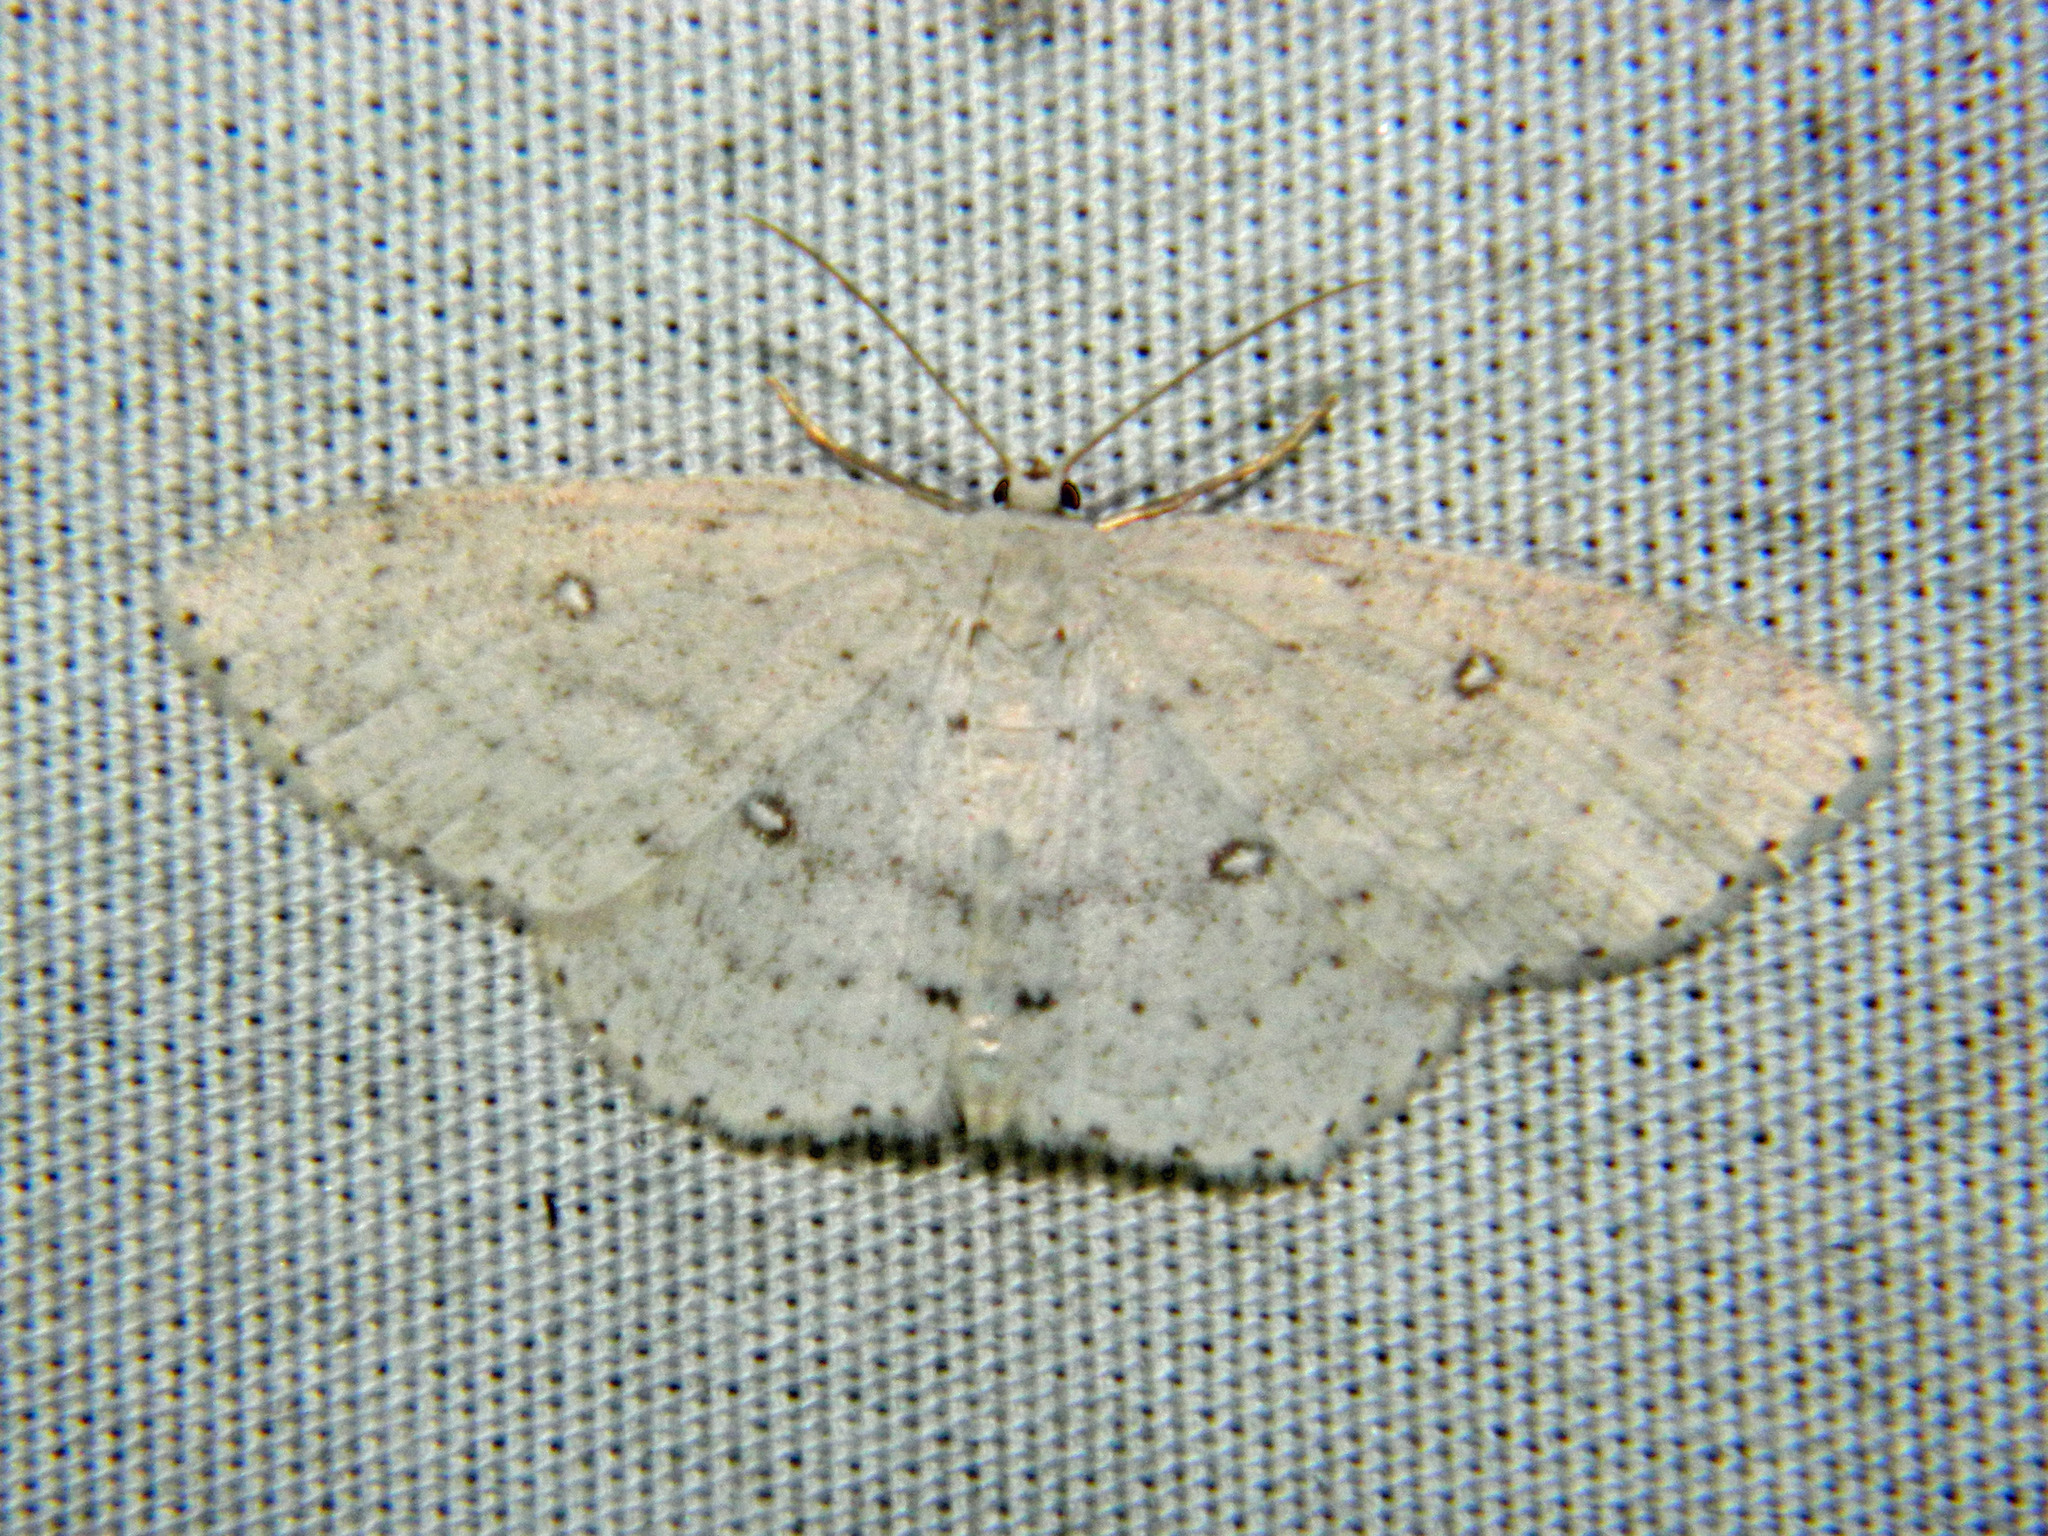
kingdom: Animalia
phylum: Arthropoda
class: Insecta
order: Lepidoptera
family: Geometridae
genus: Cyclophora
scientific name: Cyclophora pendulinaria
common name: Sweet fern geometer
